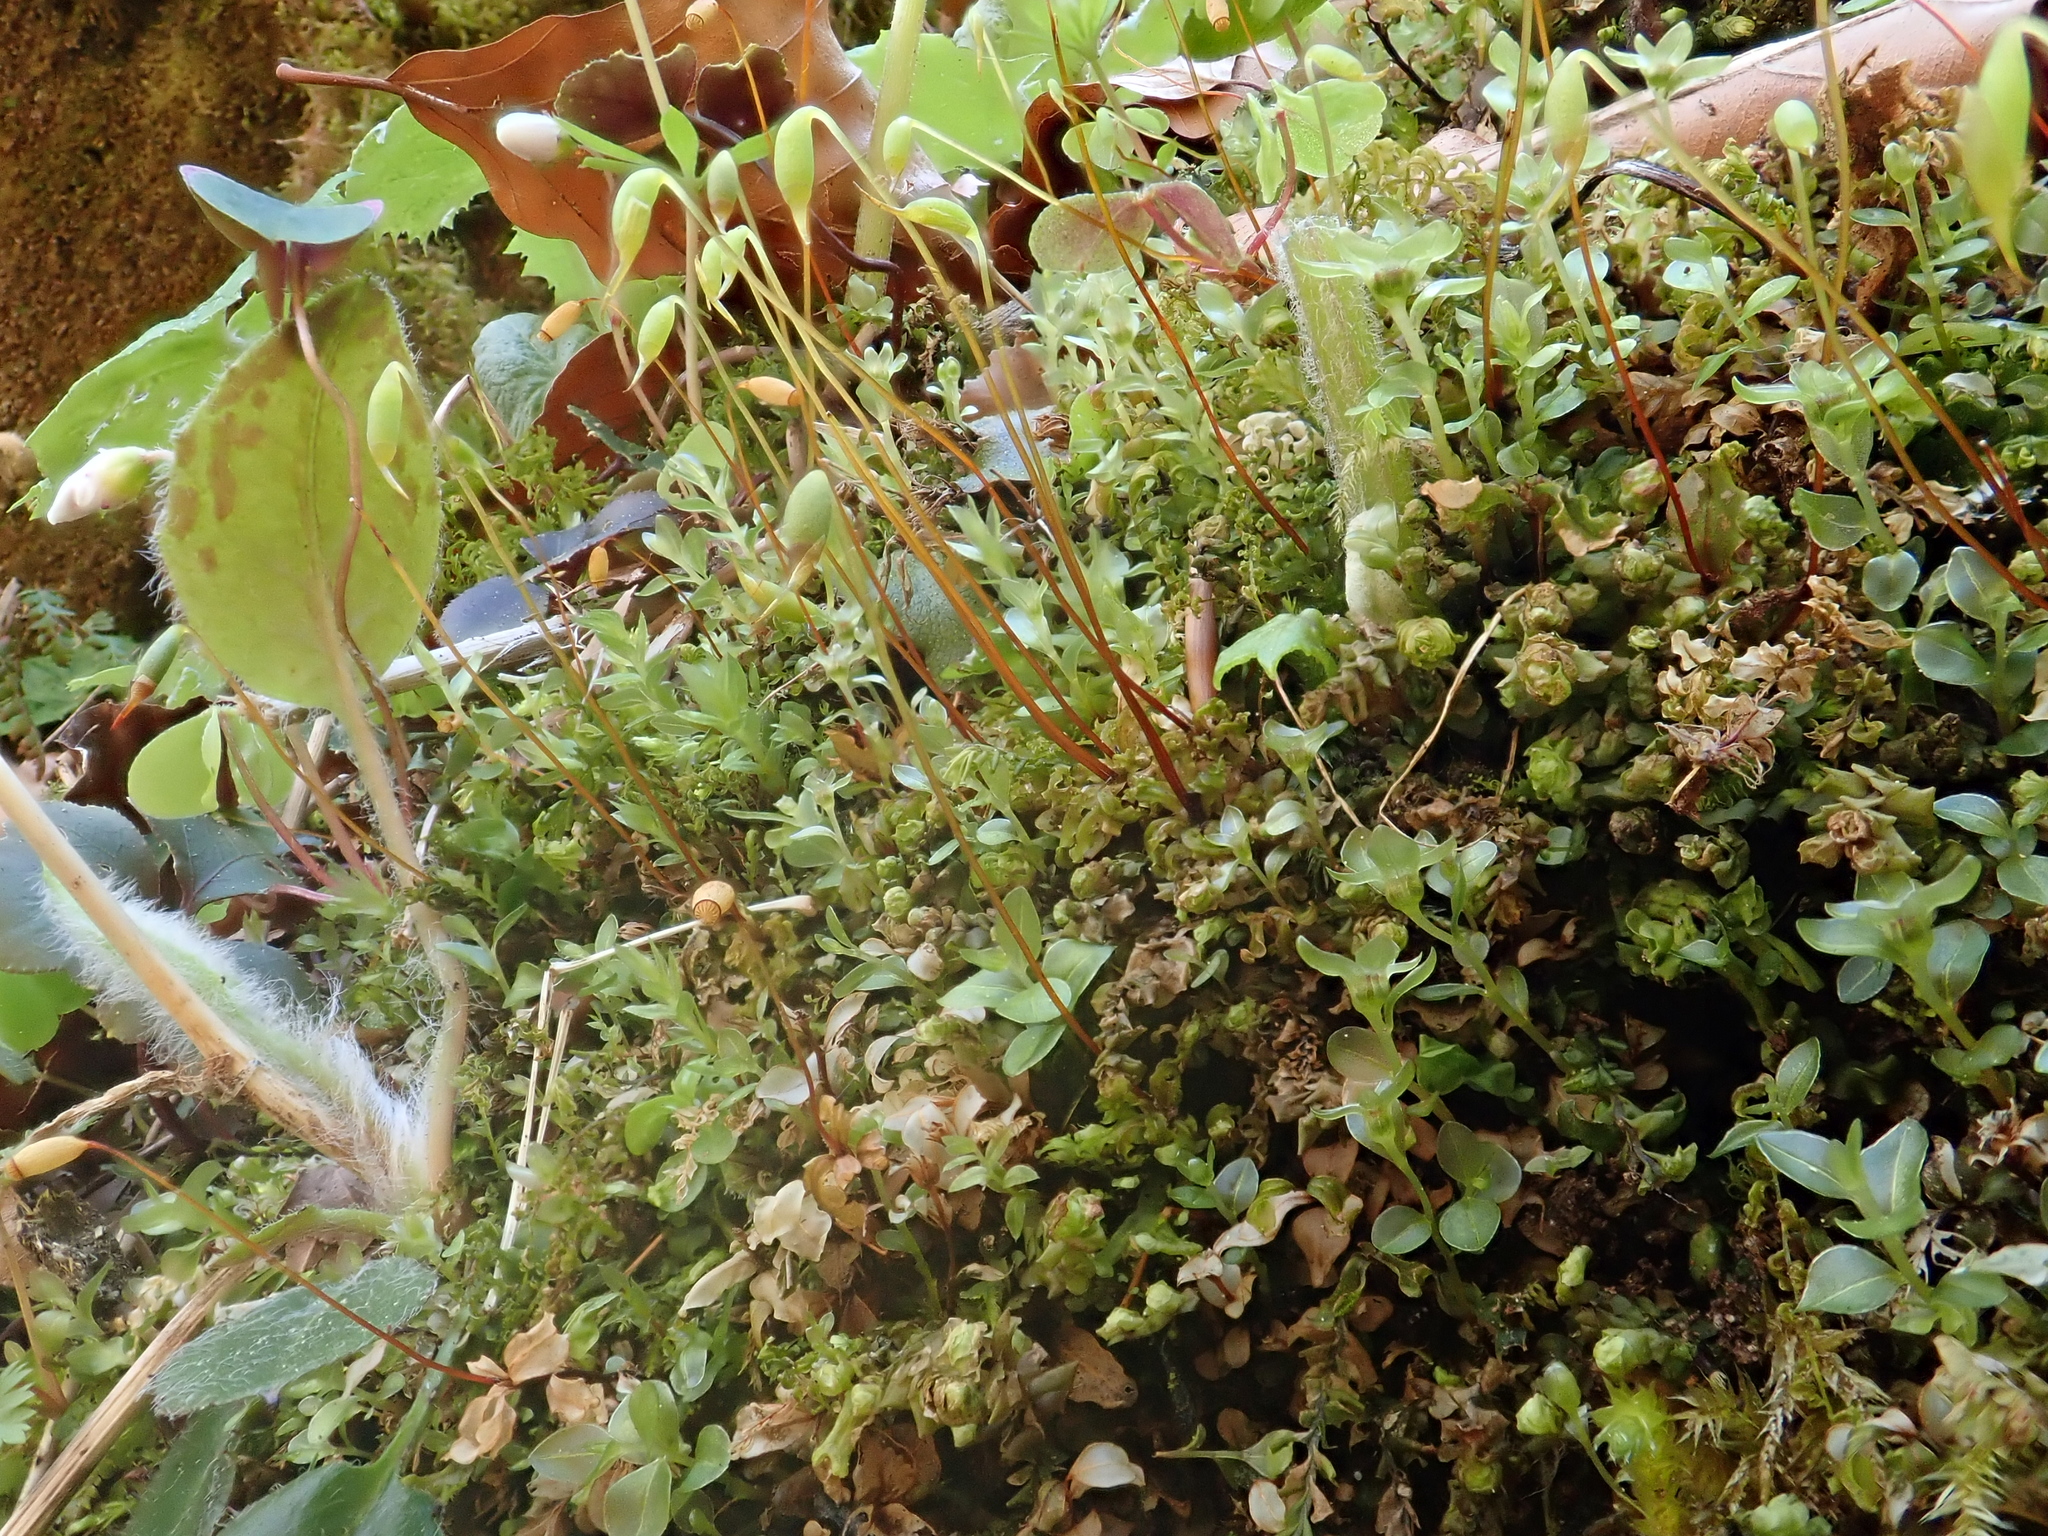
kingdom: Plantae
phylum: Bryophyta
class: Bryopsida
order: Bryales
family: Mniaceae
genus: Mnium
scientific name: Mnium marginatum
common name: Bordered leafy moss
